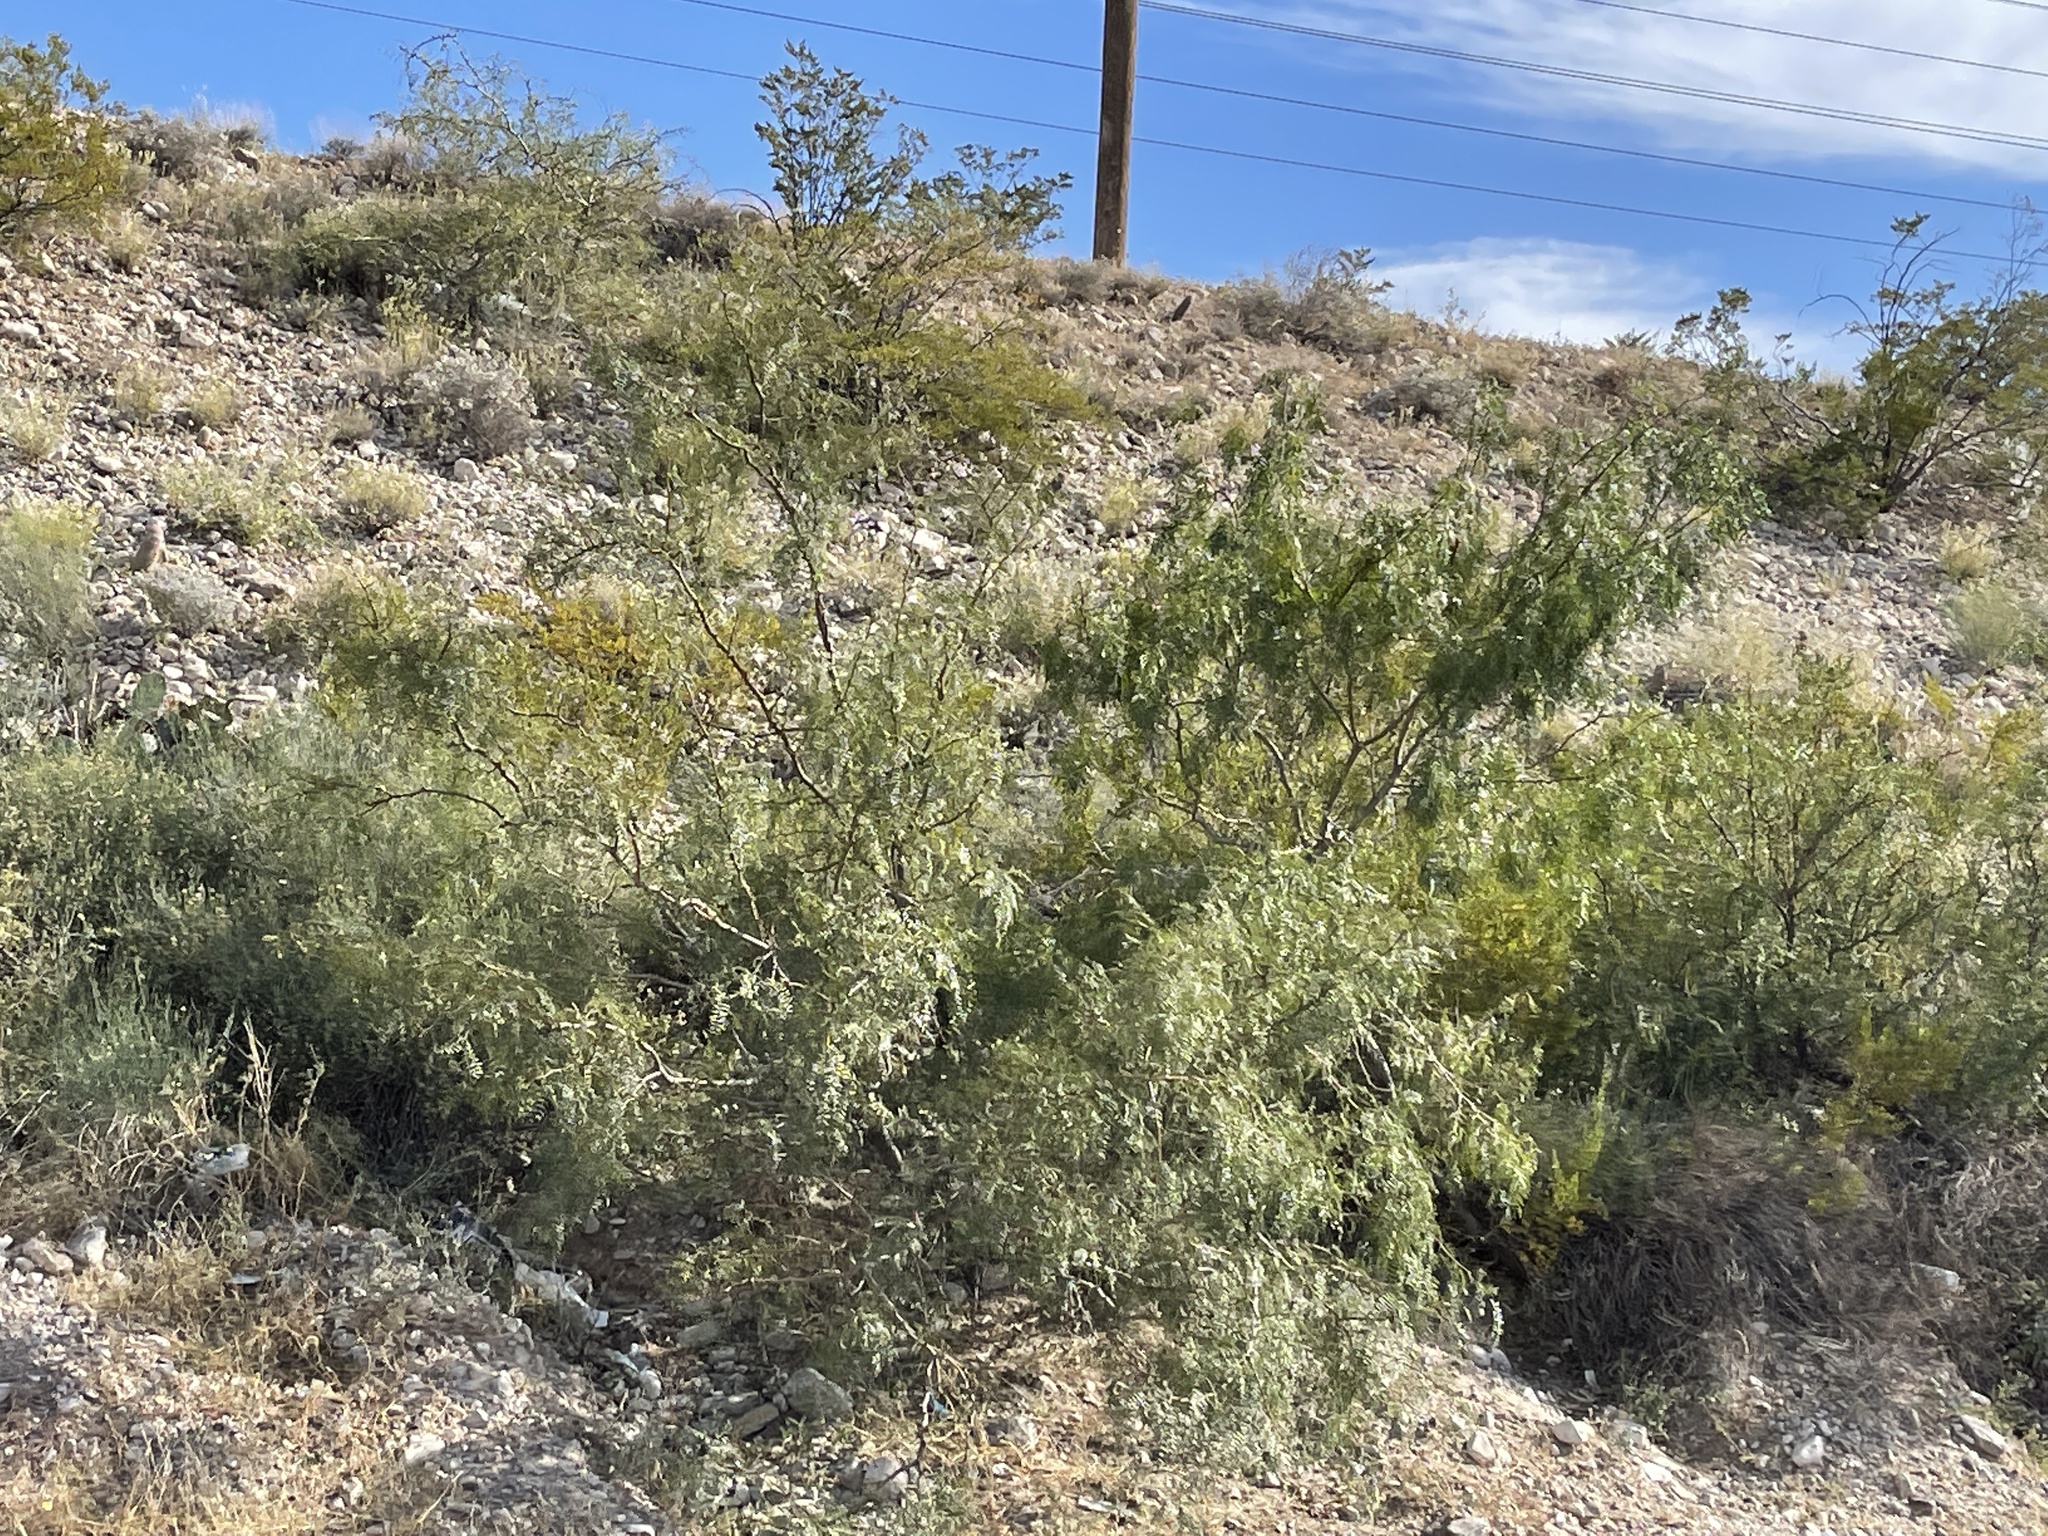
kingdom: Plantae
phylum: Tracheophyta
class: Magnoliopsida
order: Fabales
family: Fabaceae
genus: Prosopis
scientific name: Prosopis glandulosa
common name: Honey mesquite
